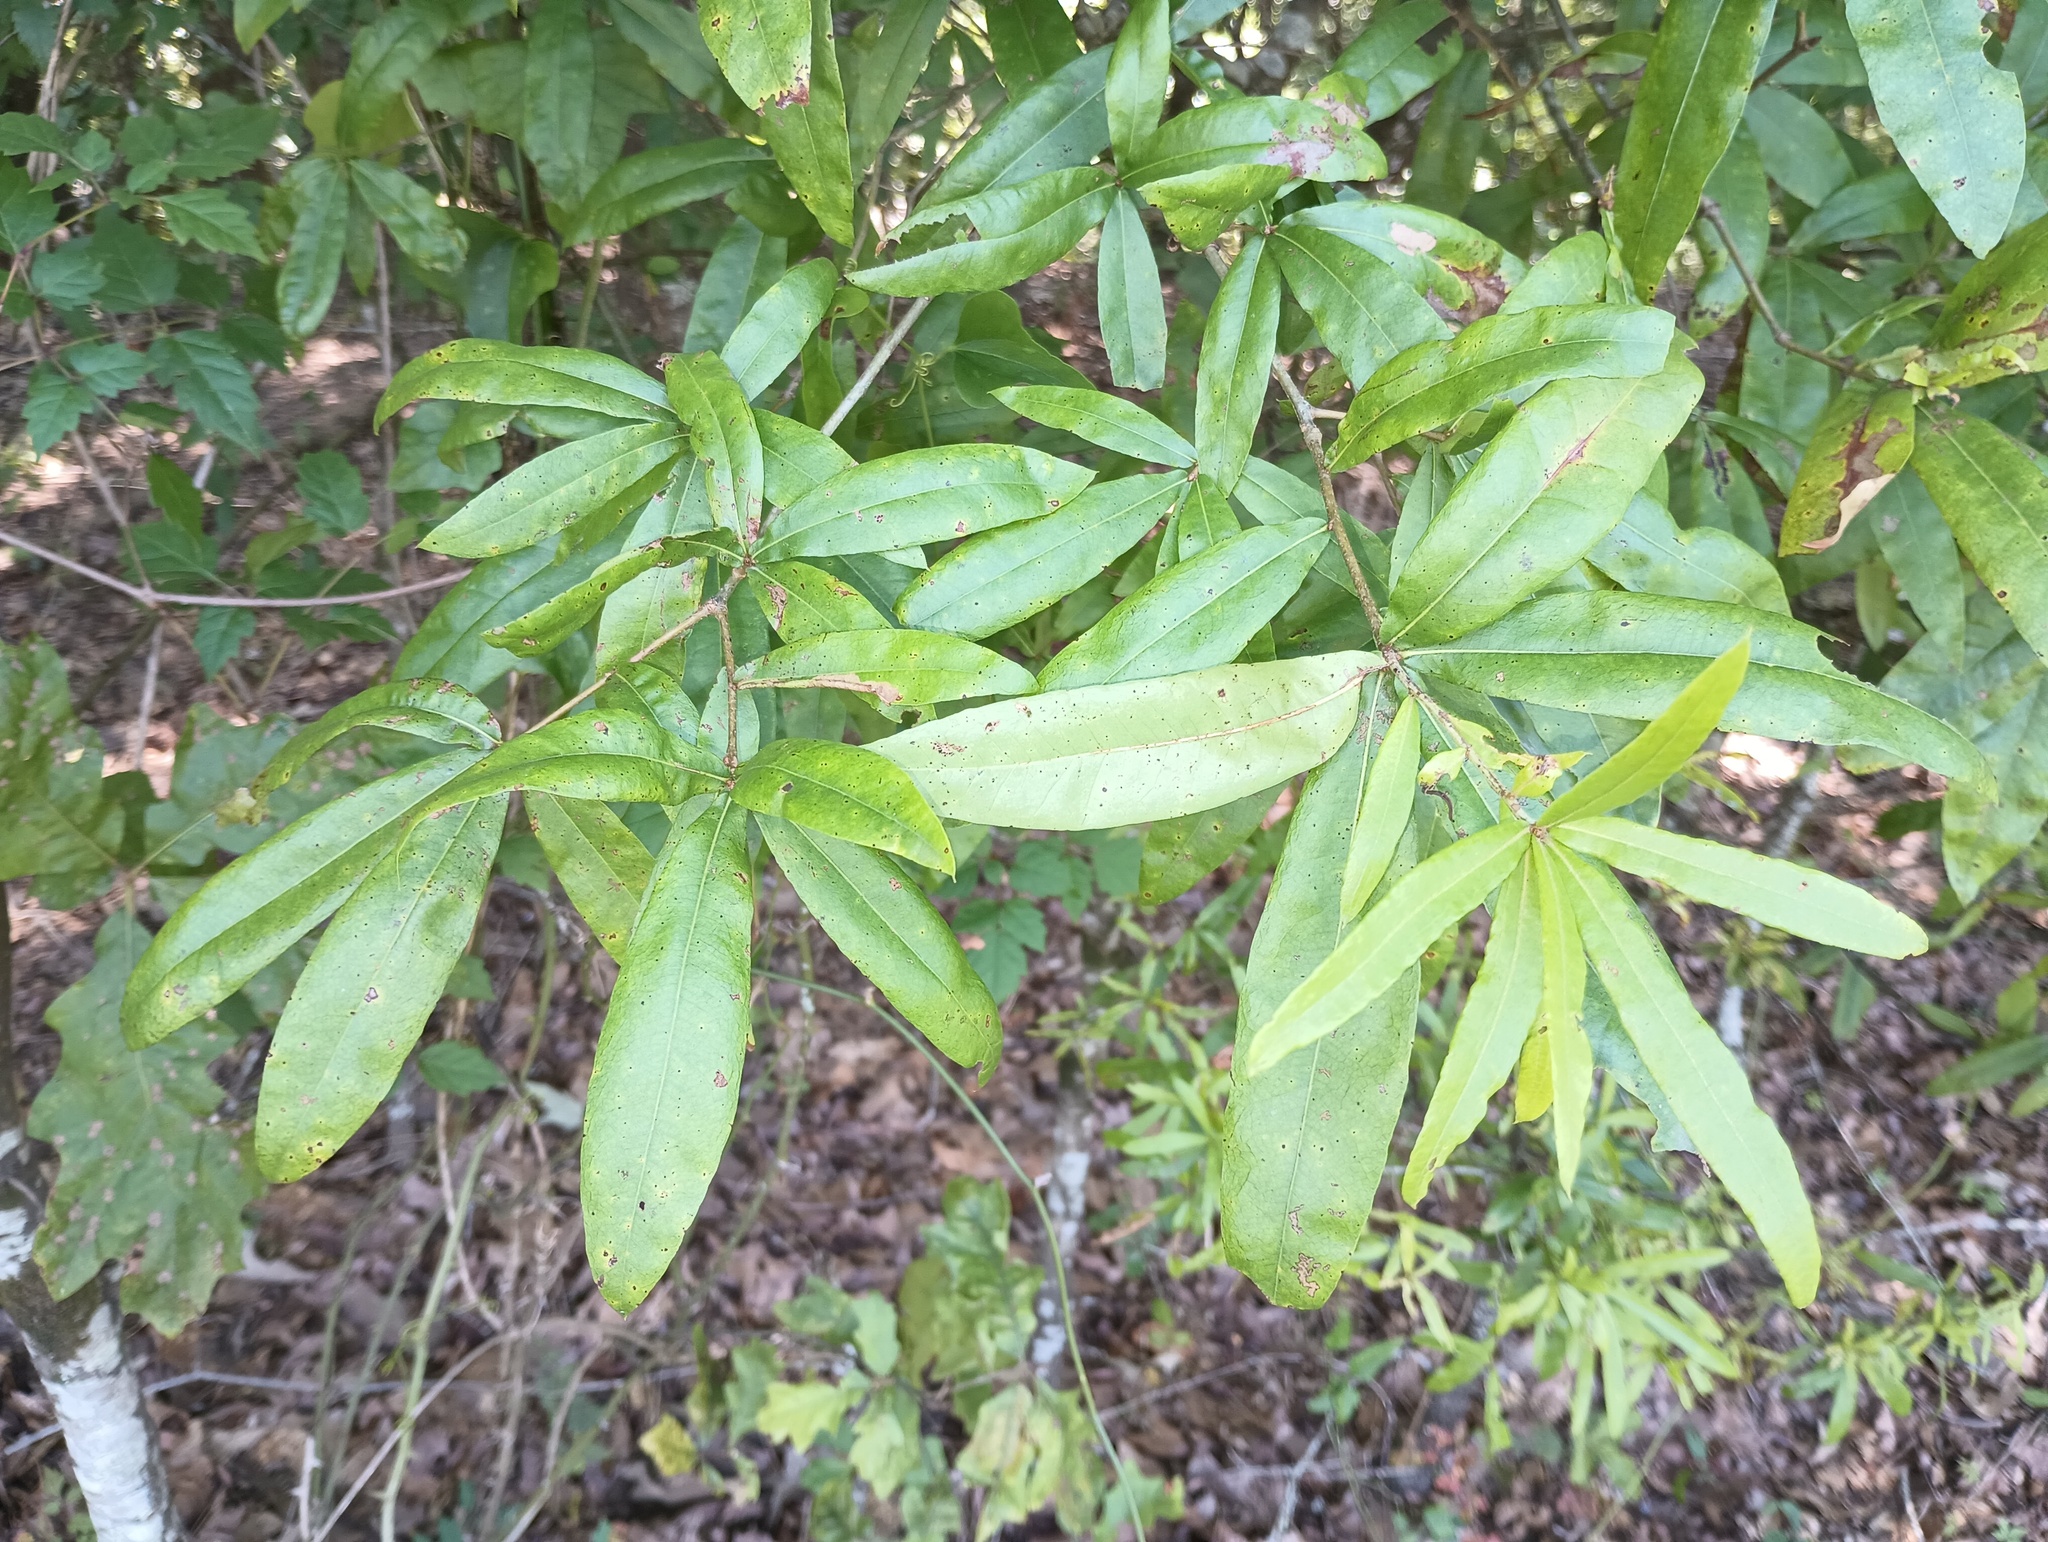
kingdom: Plantae
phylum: Tracheophyta
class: Magnoliopsida
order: Fagales
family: Fagaceae
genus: Quercus
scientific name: Quercus phellos
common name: Willow oak
